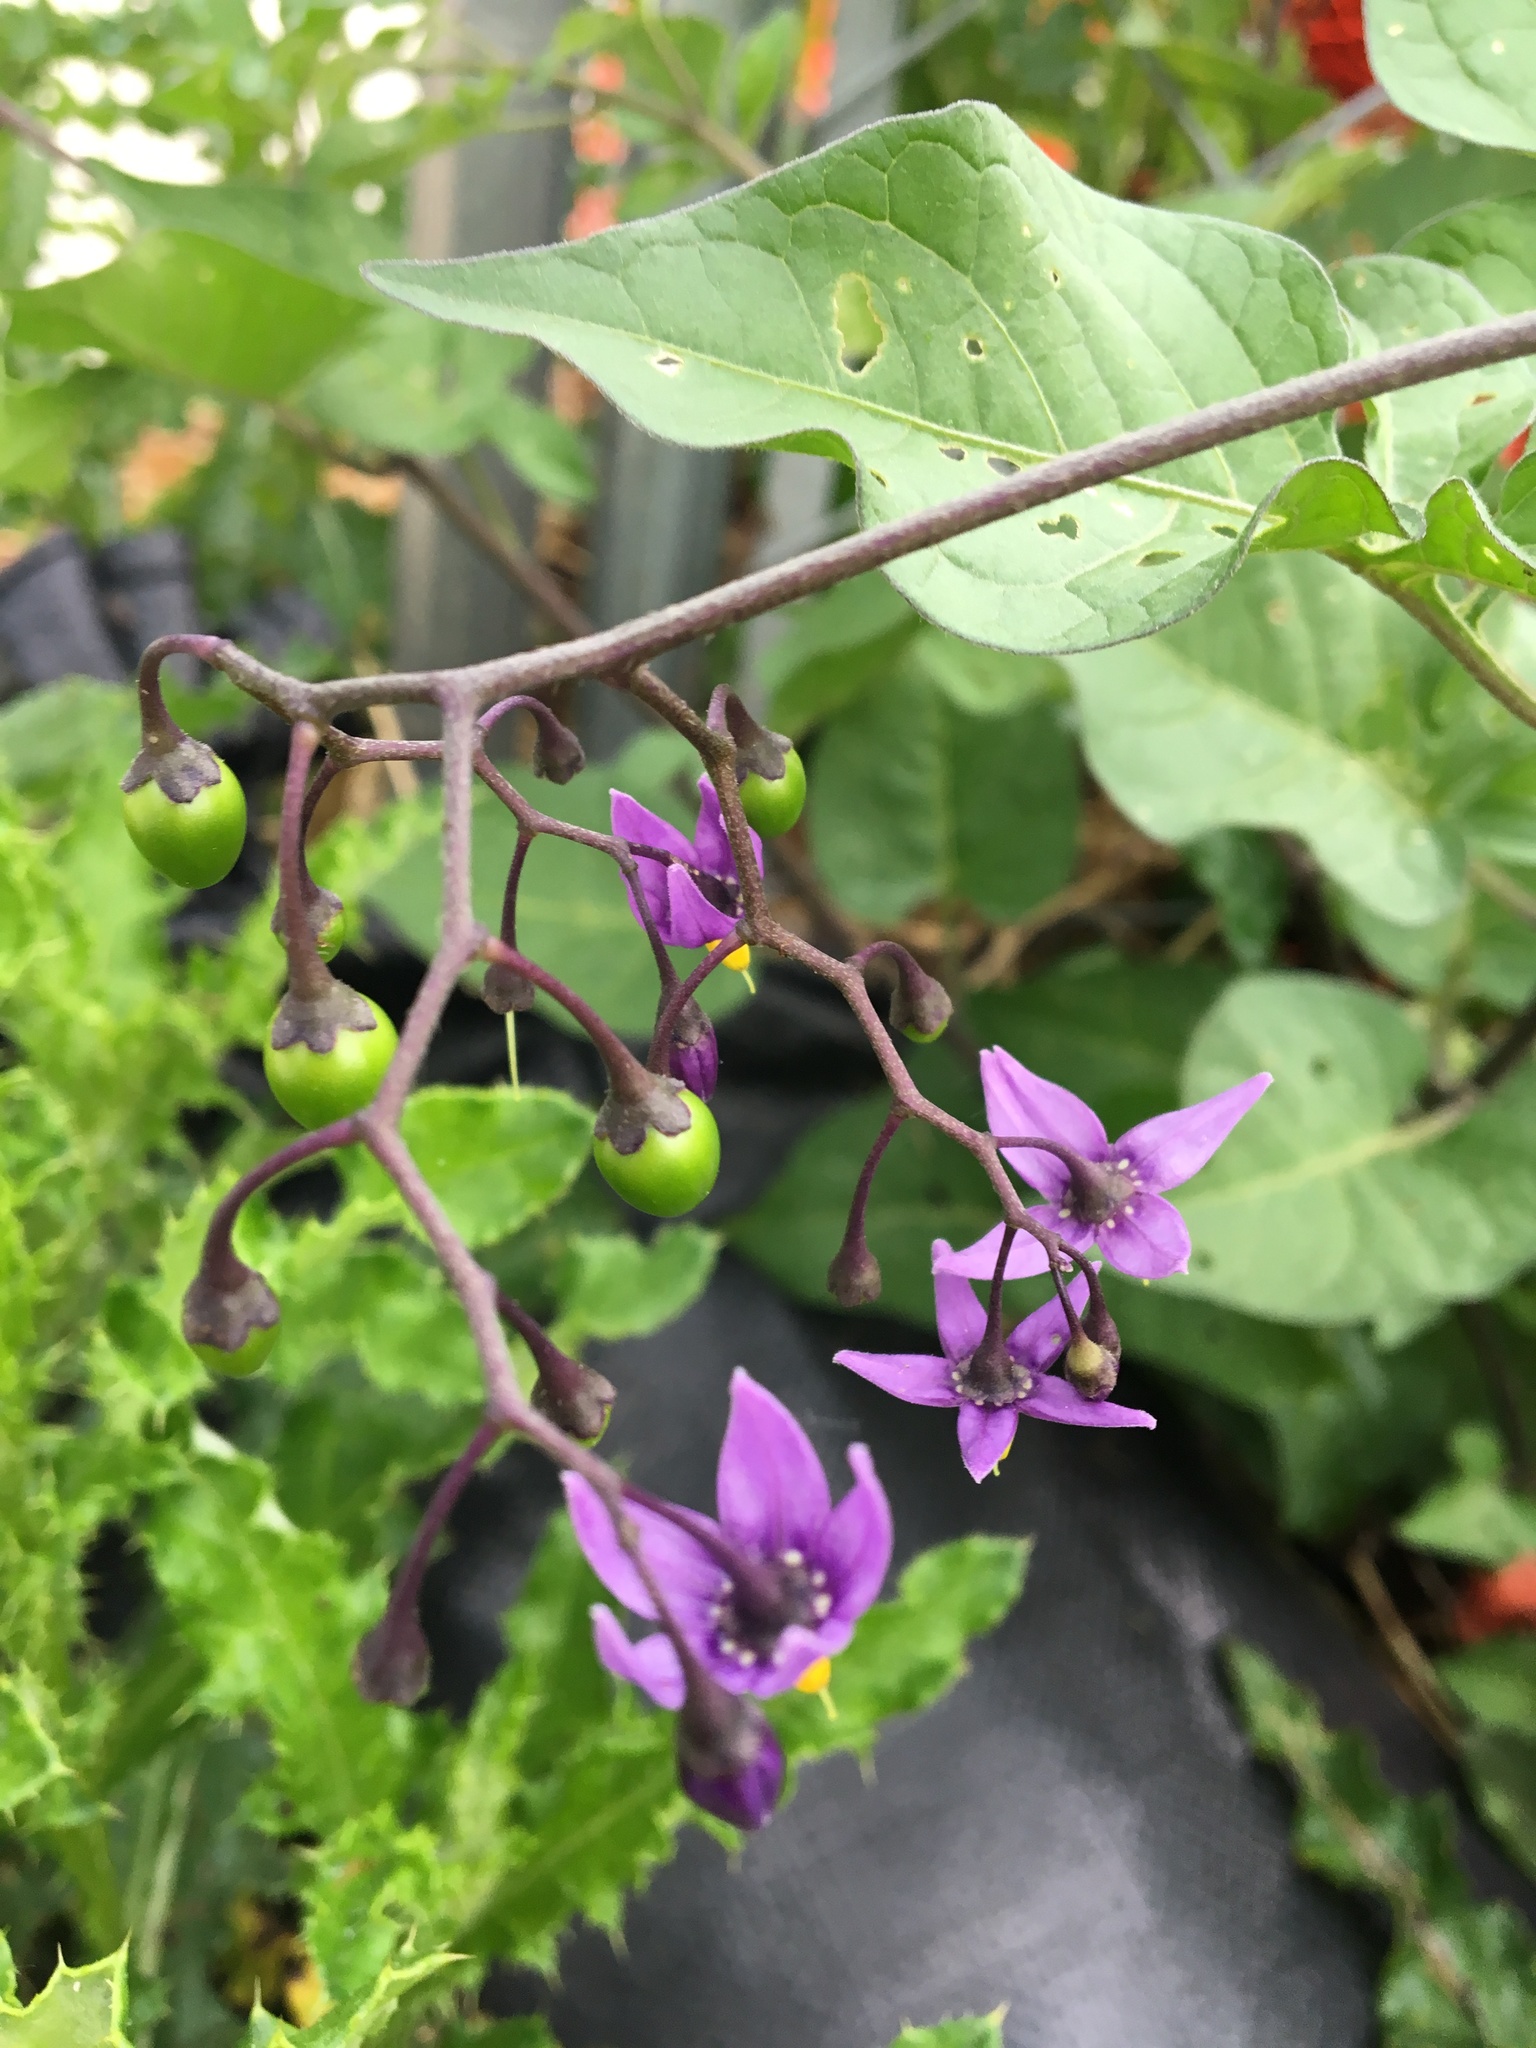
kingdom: Plantae
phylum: Tracheophyta
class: Magnoliopsida
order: Solanales
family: Solanaceae
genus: Solanum
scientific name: Solanum dulcamara
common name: Climbing nightshade
